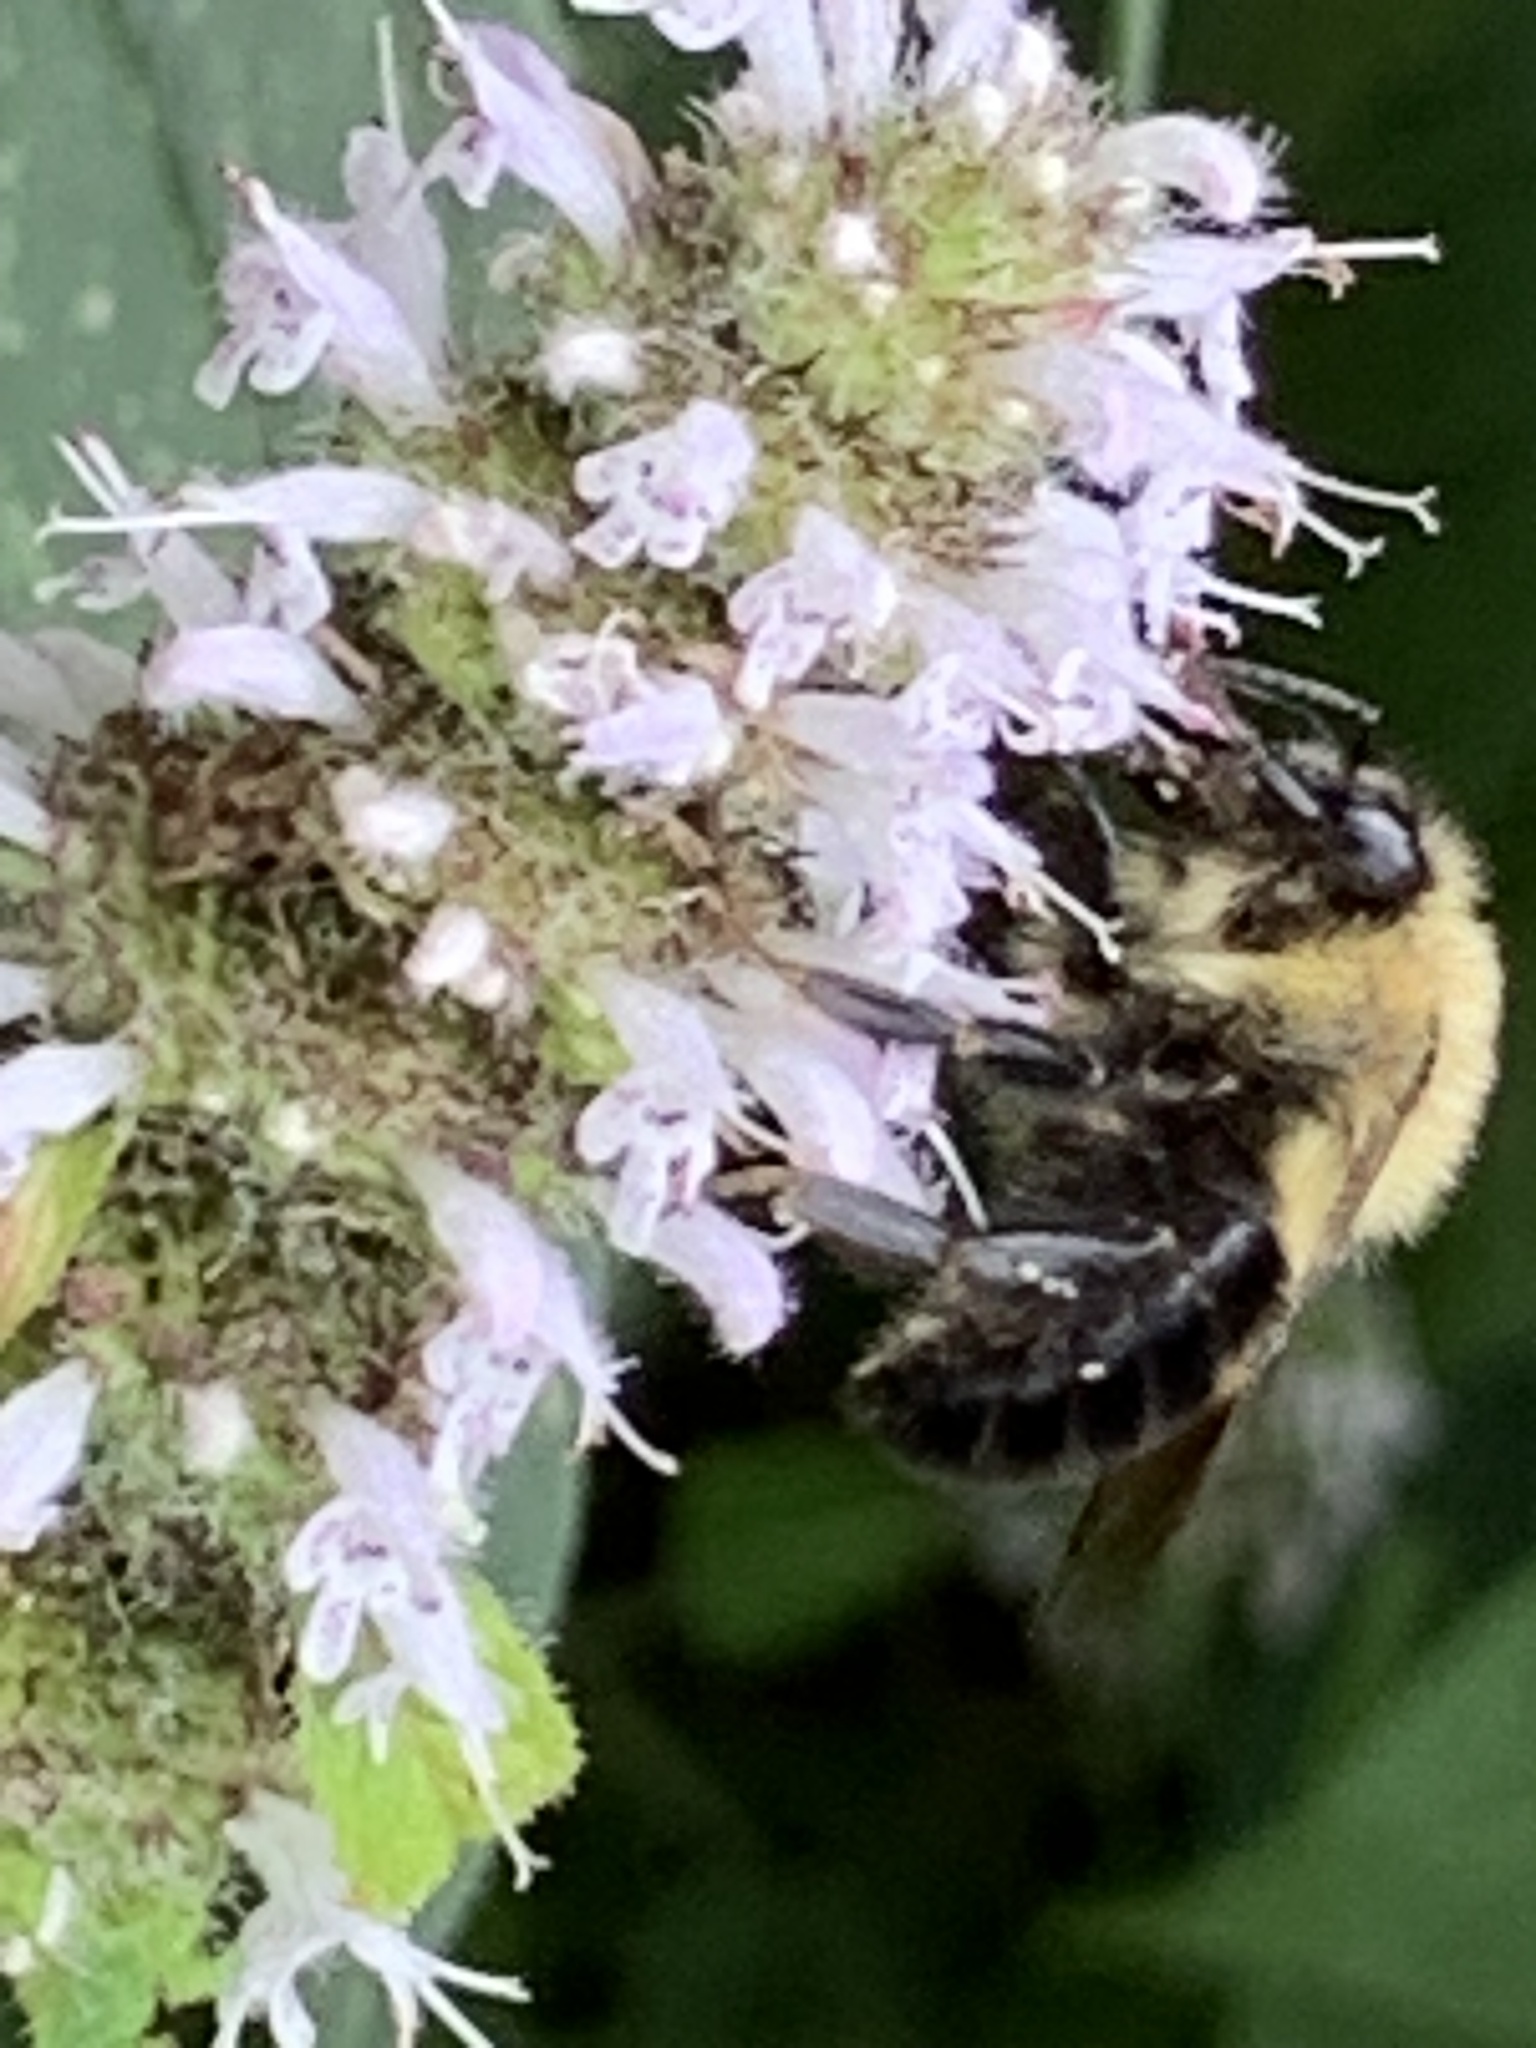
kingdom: Animalia
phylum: Arthropoda
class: Insecta
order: Hymenoptera
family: Apidae
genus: Bombus
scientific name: Bombus bimaculatus
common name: Two-spotted bumble bee
